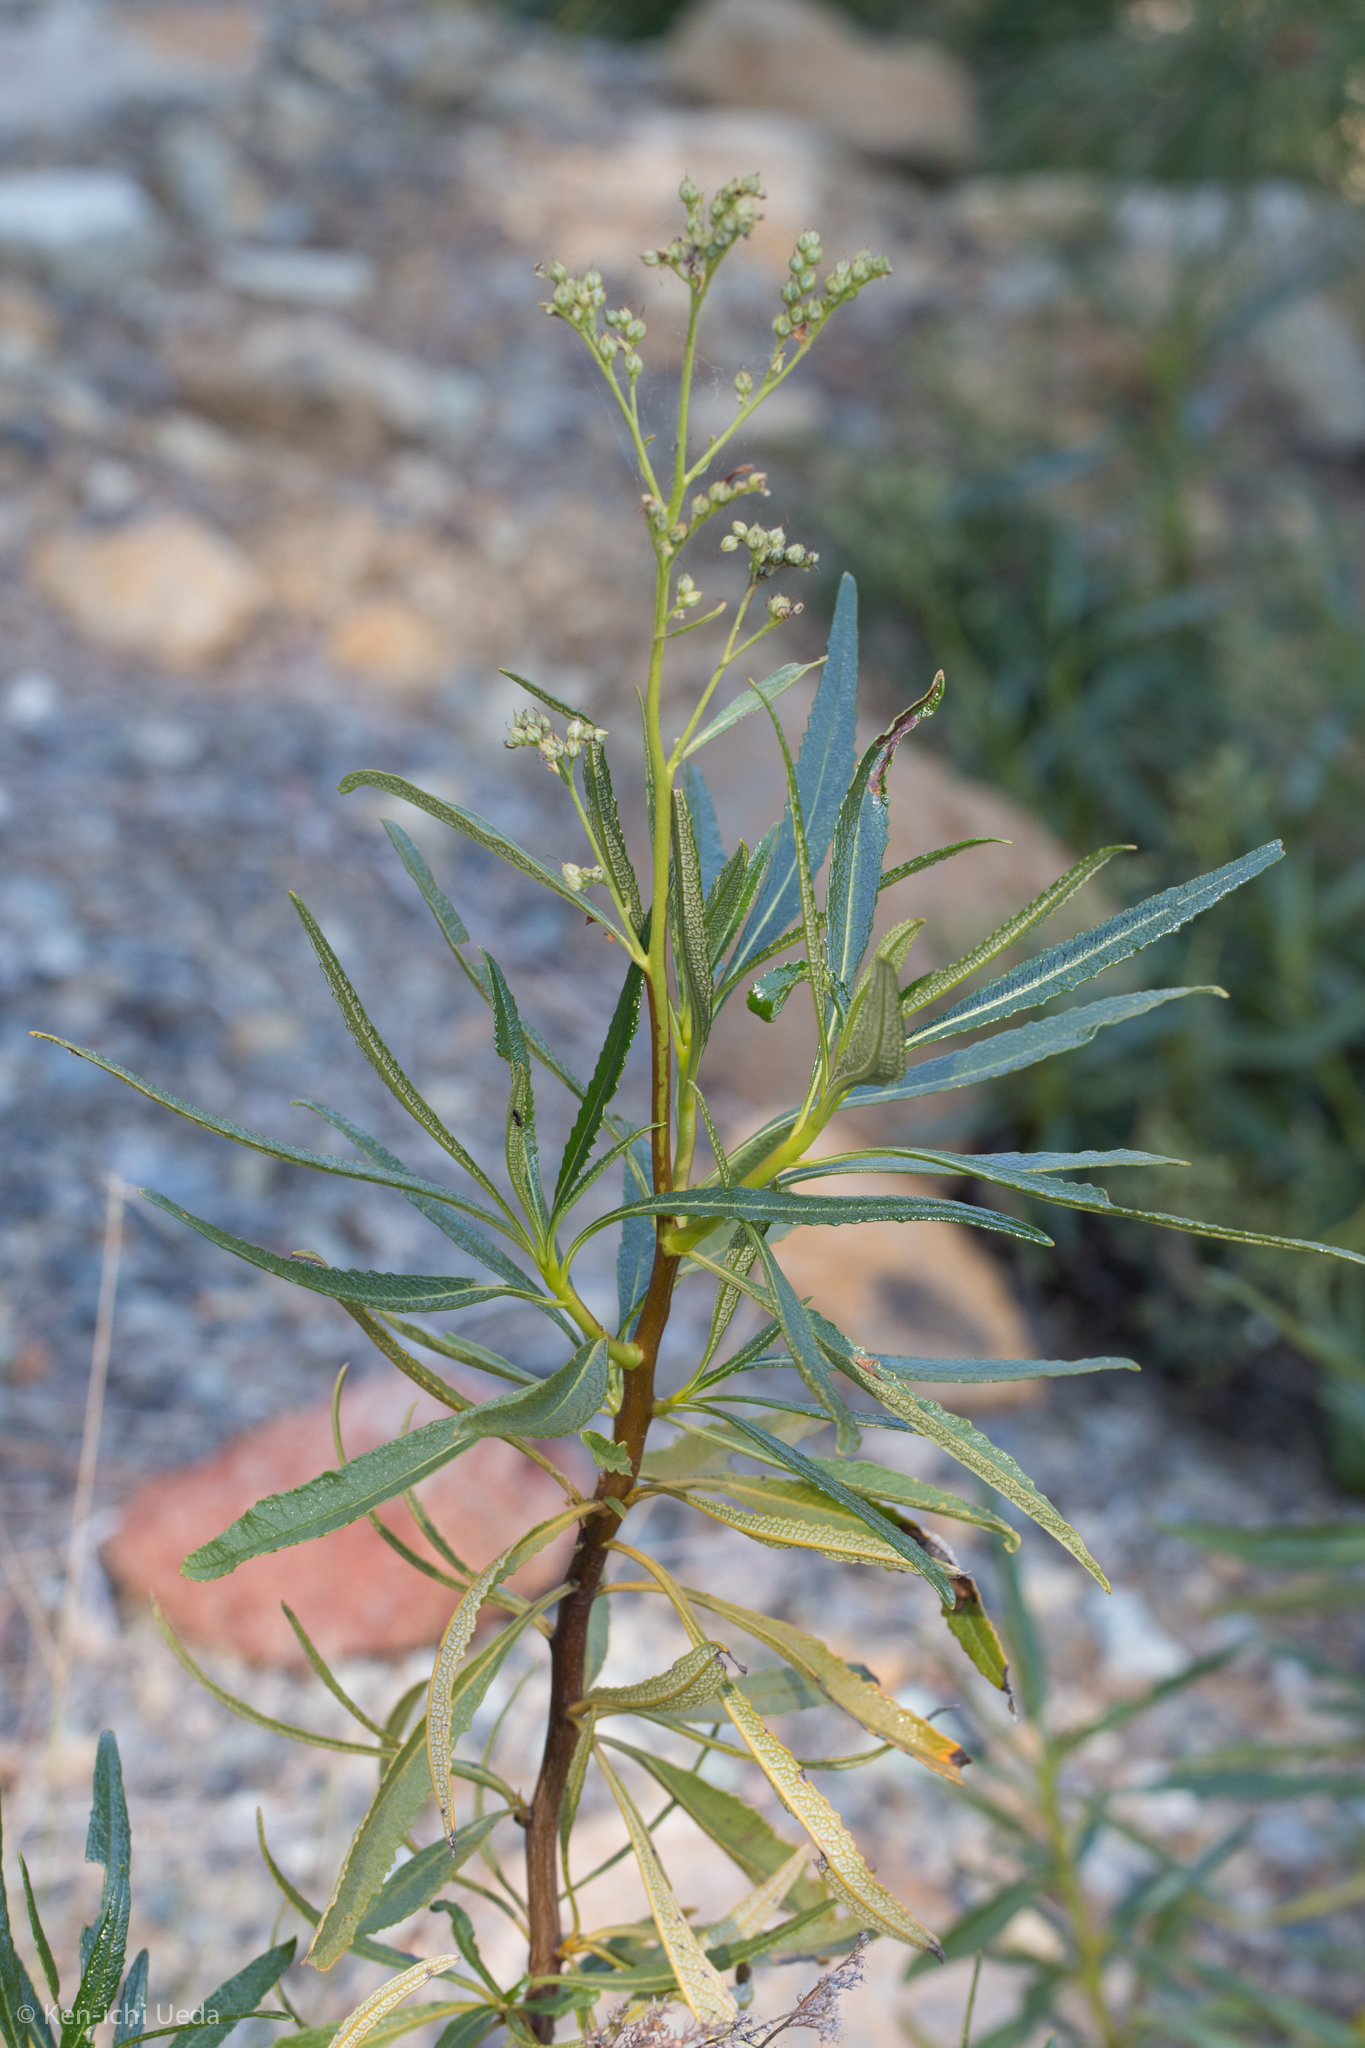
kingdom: Plantae
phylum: Tracheophyta
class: Magnoliopsida
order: Boraginales
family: Namaceae
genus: Eriodictyon
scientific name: Eriodictyon californicum
